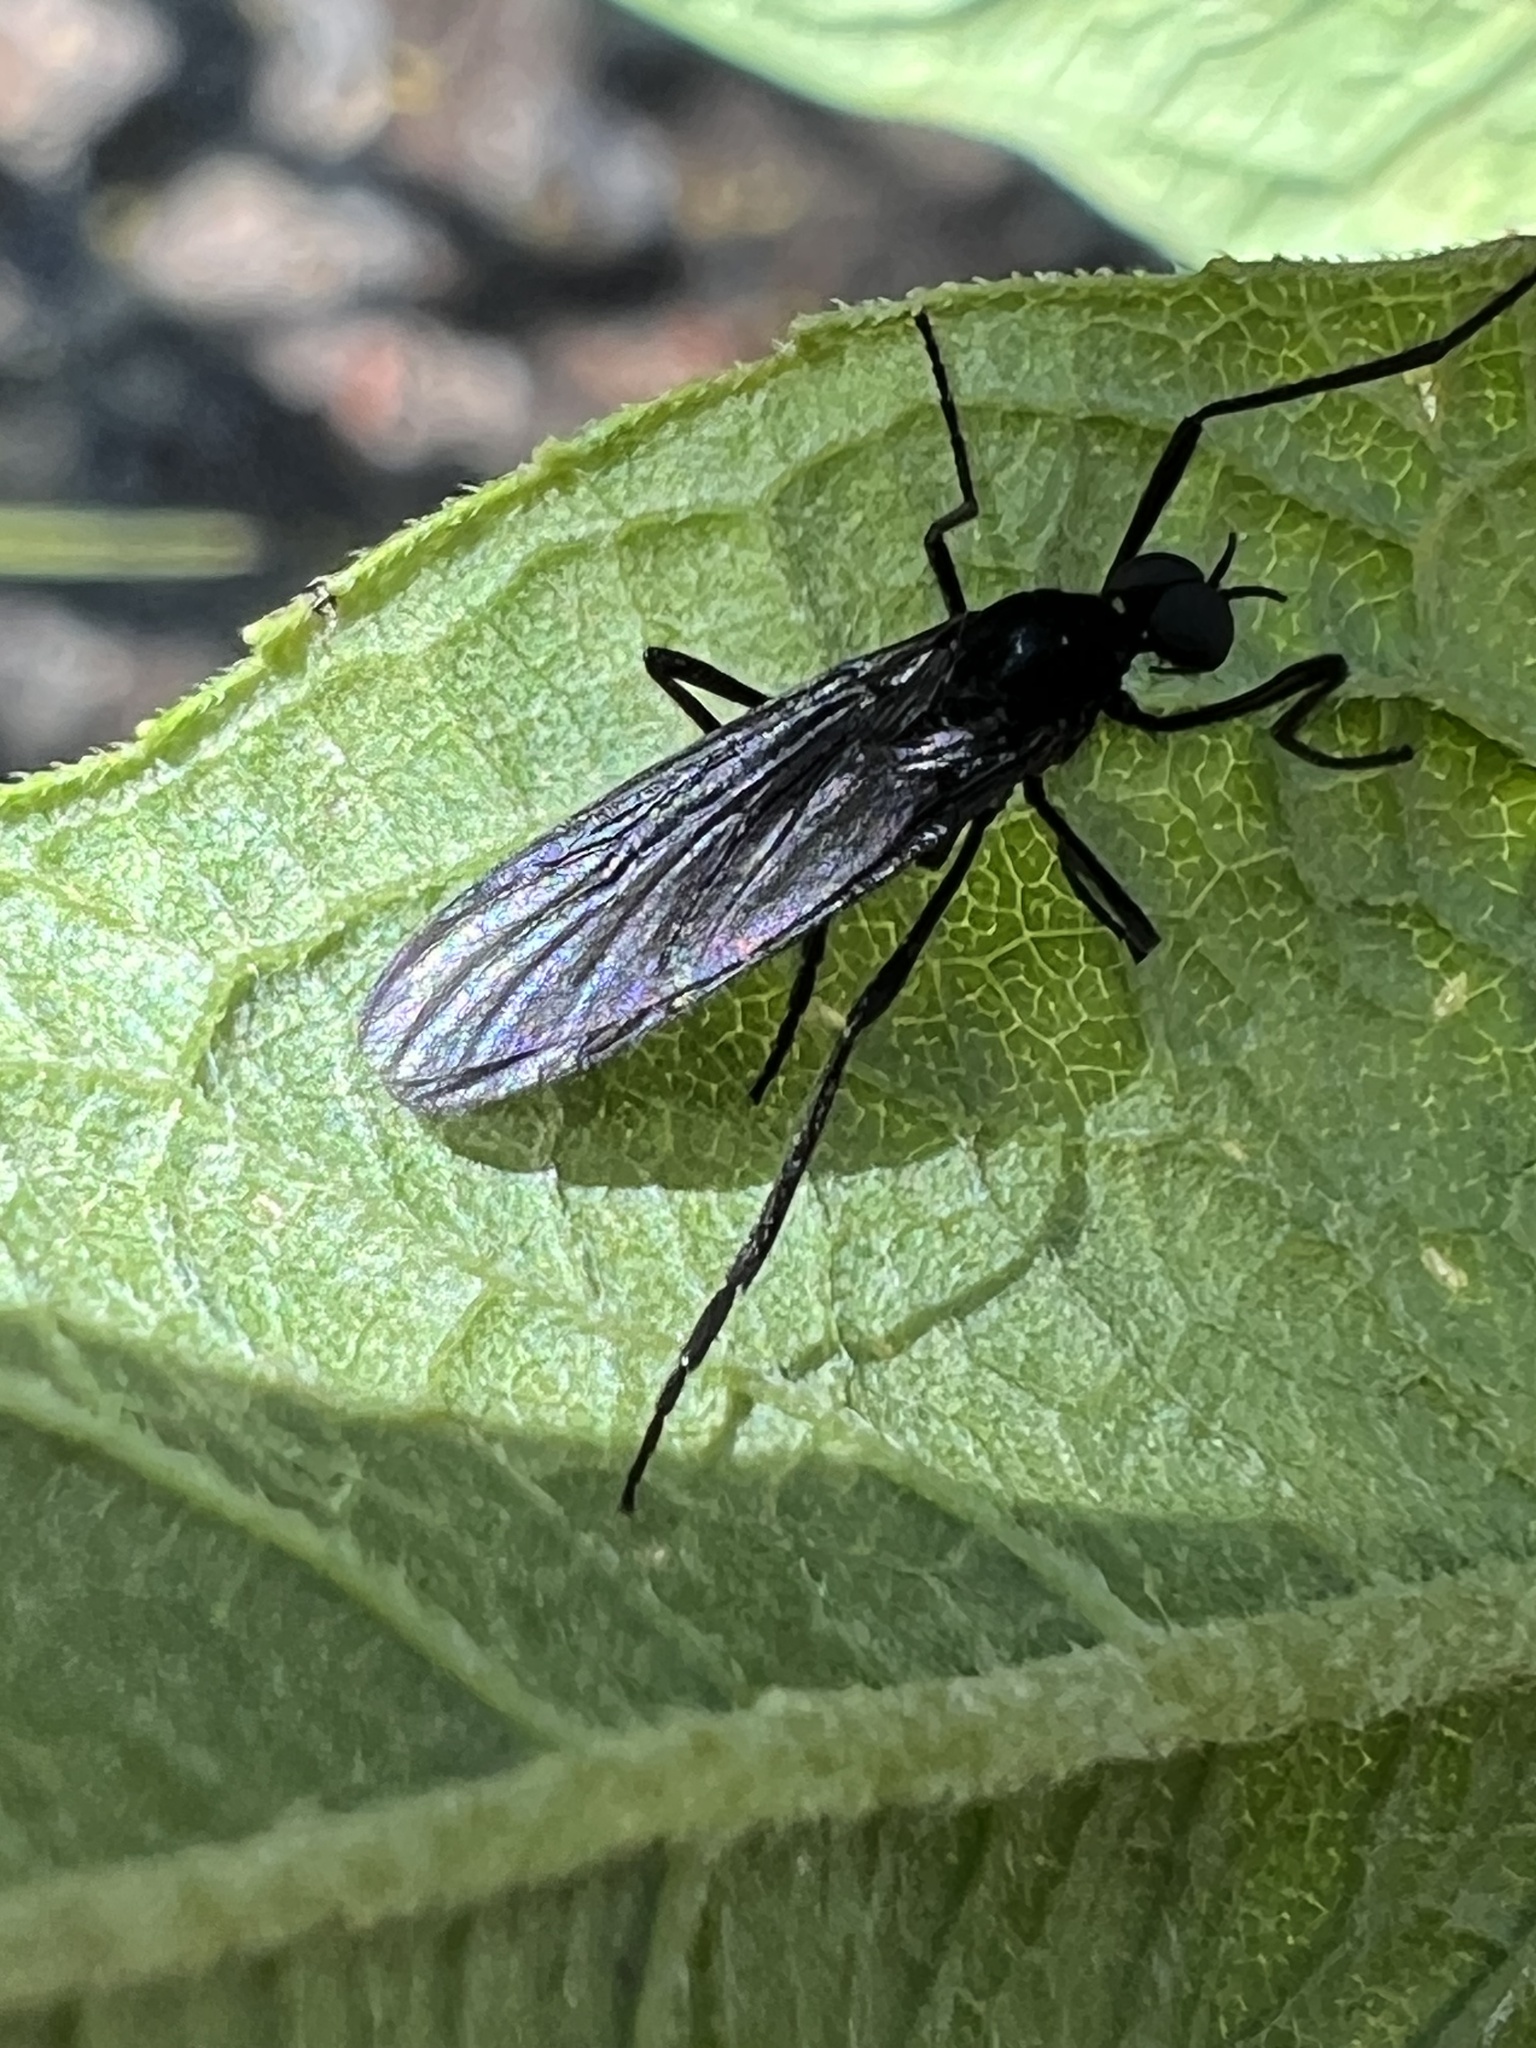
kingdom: Animalia
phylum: Arthropoda
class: Insecta
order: Diptera
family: Bibionidae
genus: Penthetria
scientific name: Penthetria heteroptera
